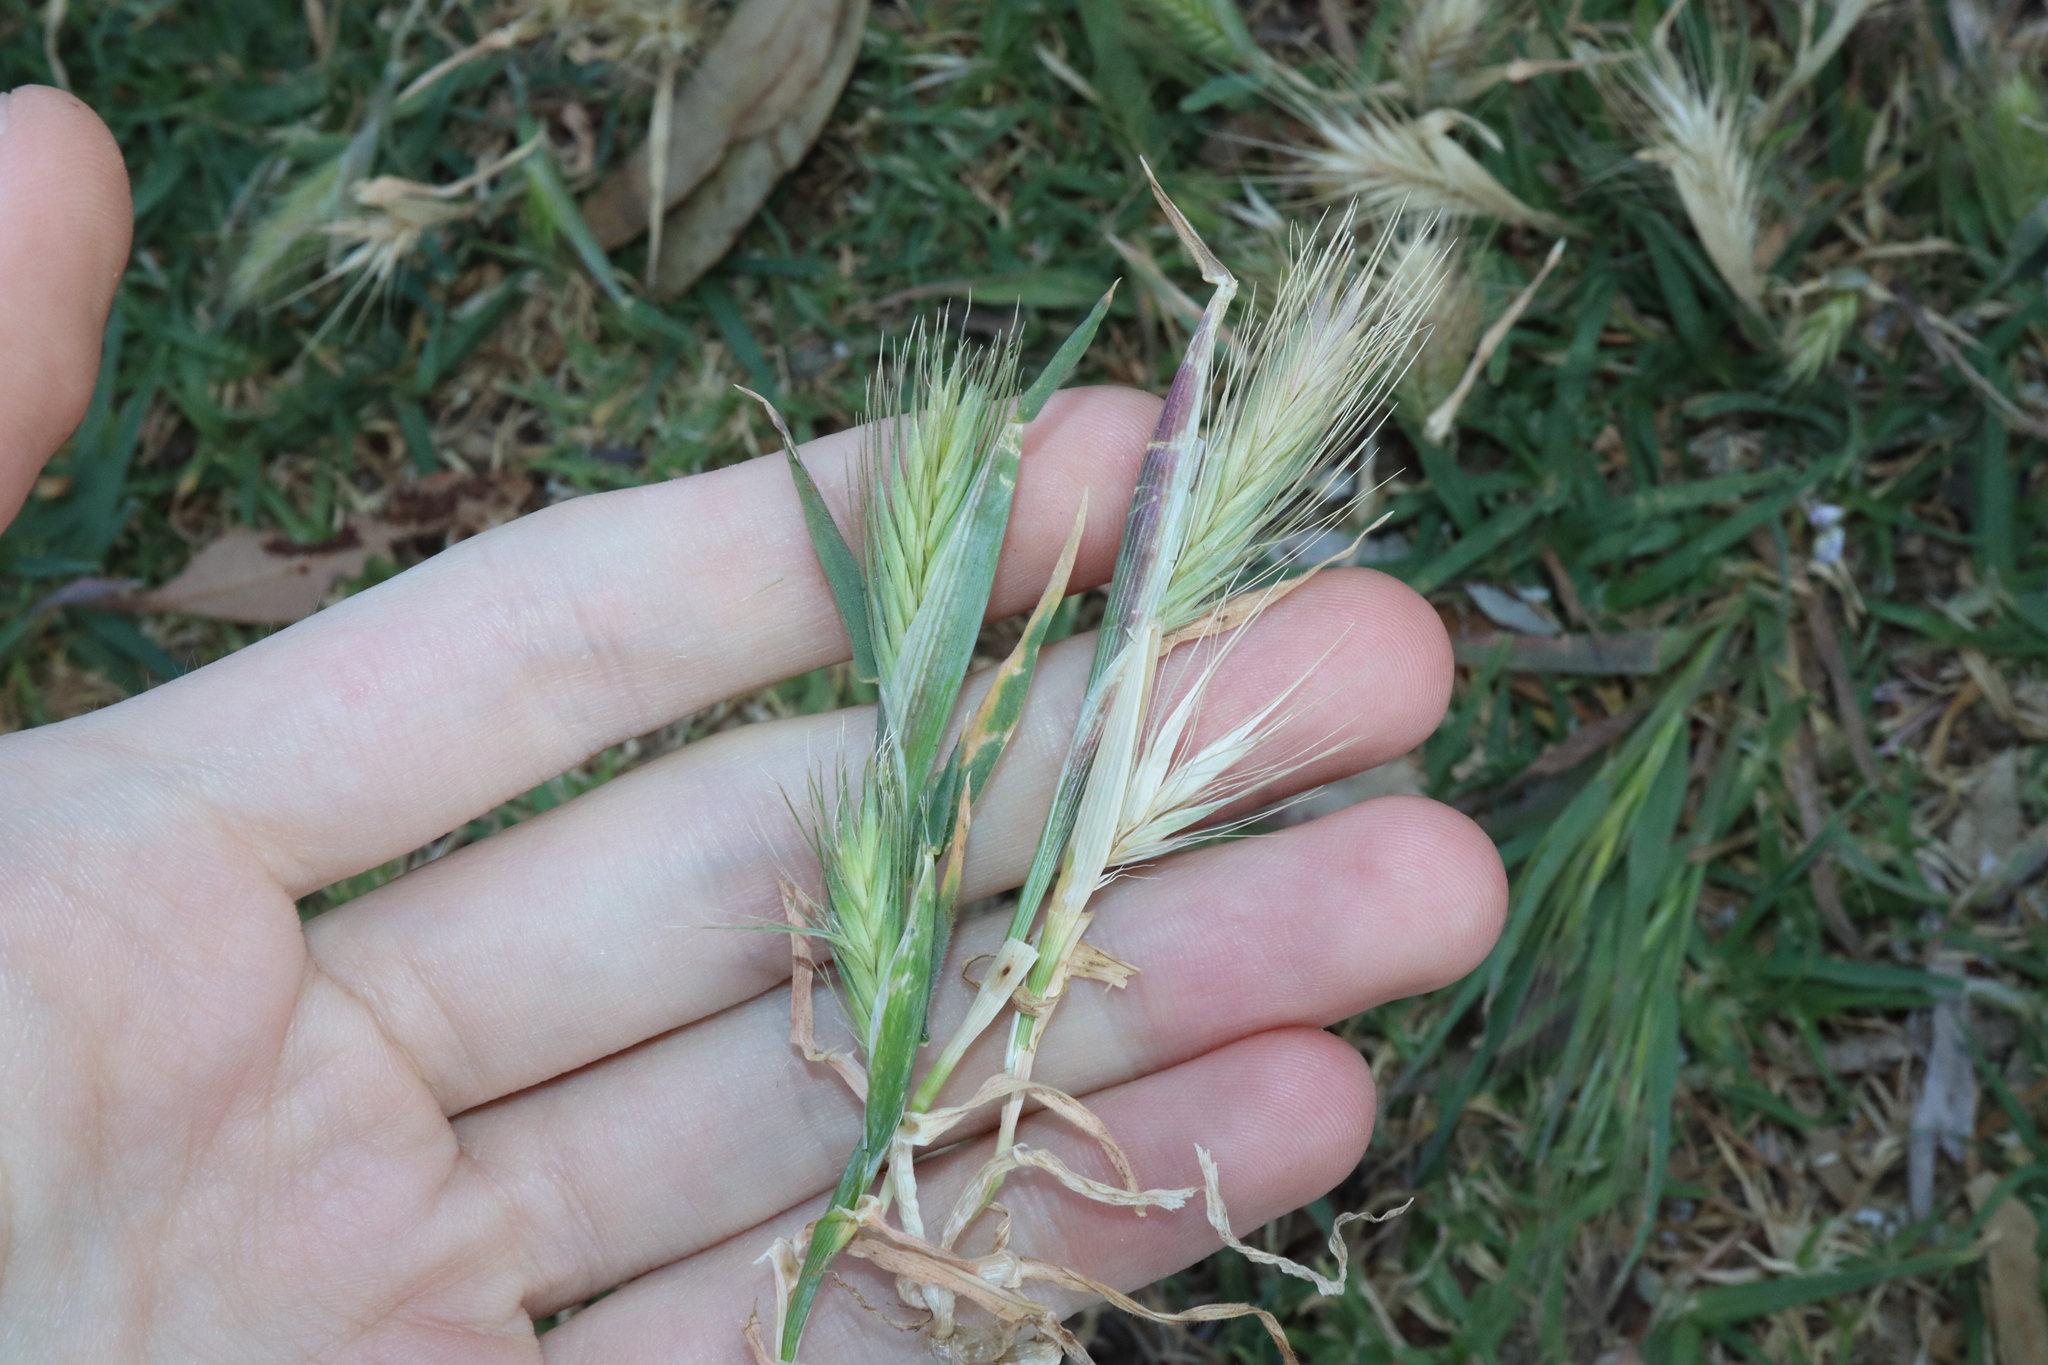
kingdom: Plantae
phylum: Tracheophyta
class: Liliopsida
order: Poales
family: Poaceae
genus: Hordeum
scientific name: Hordeum marinum
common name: Sea barley
